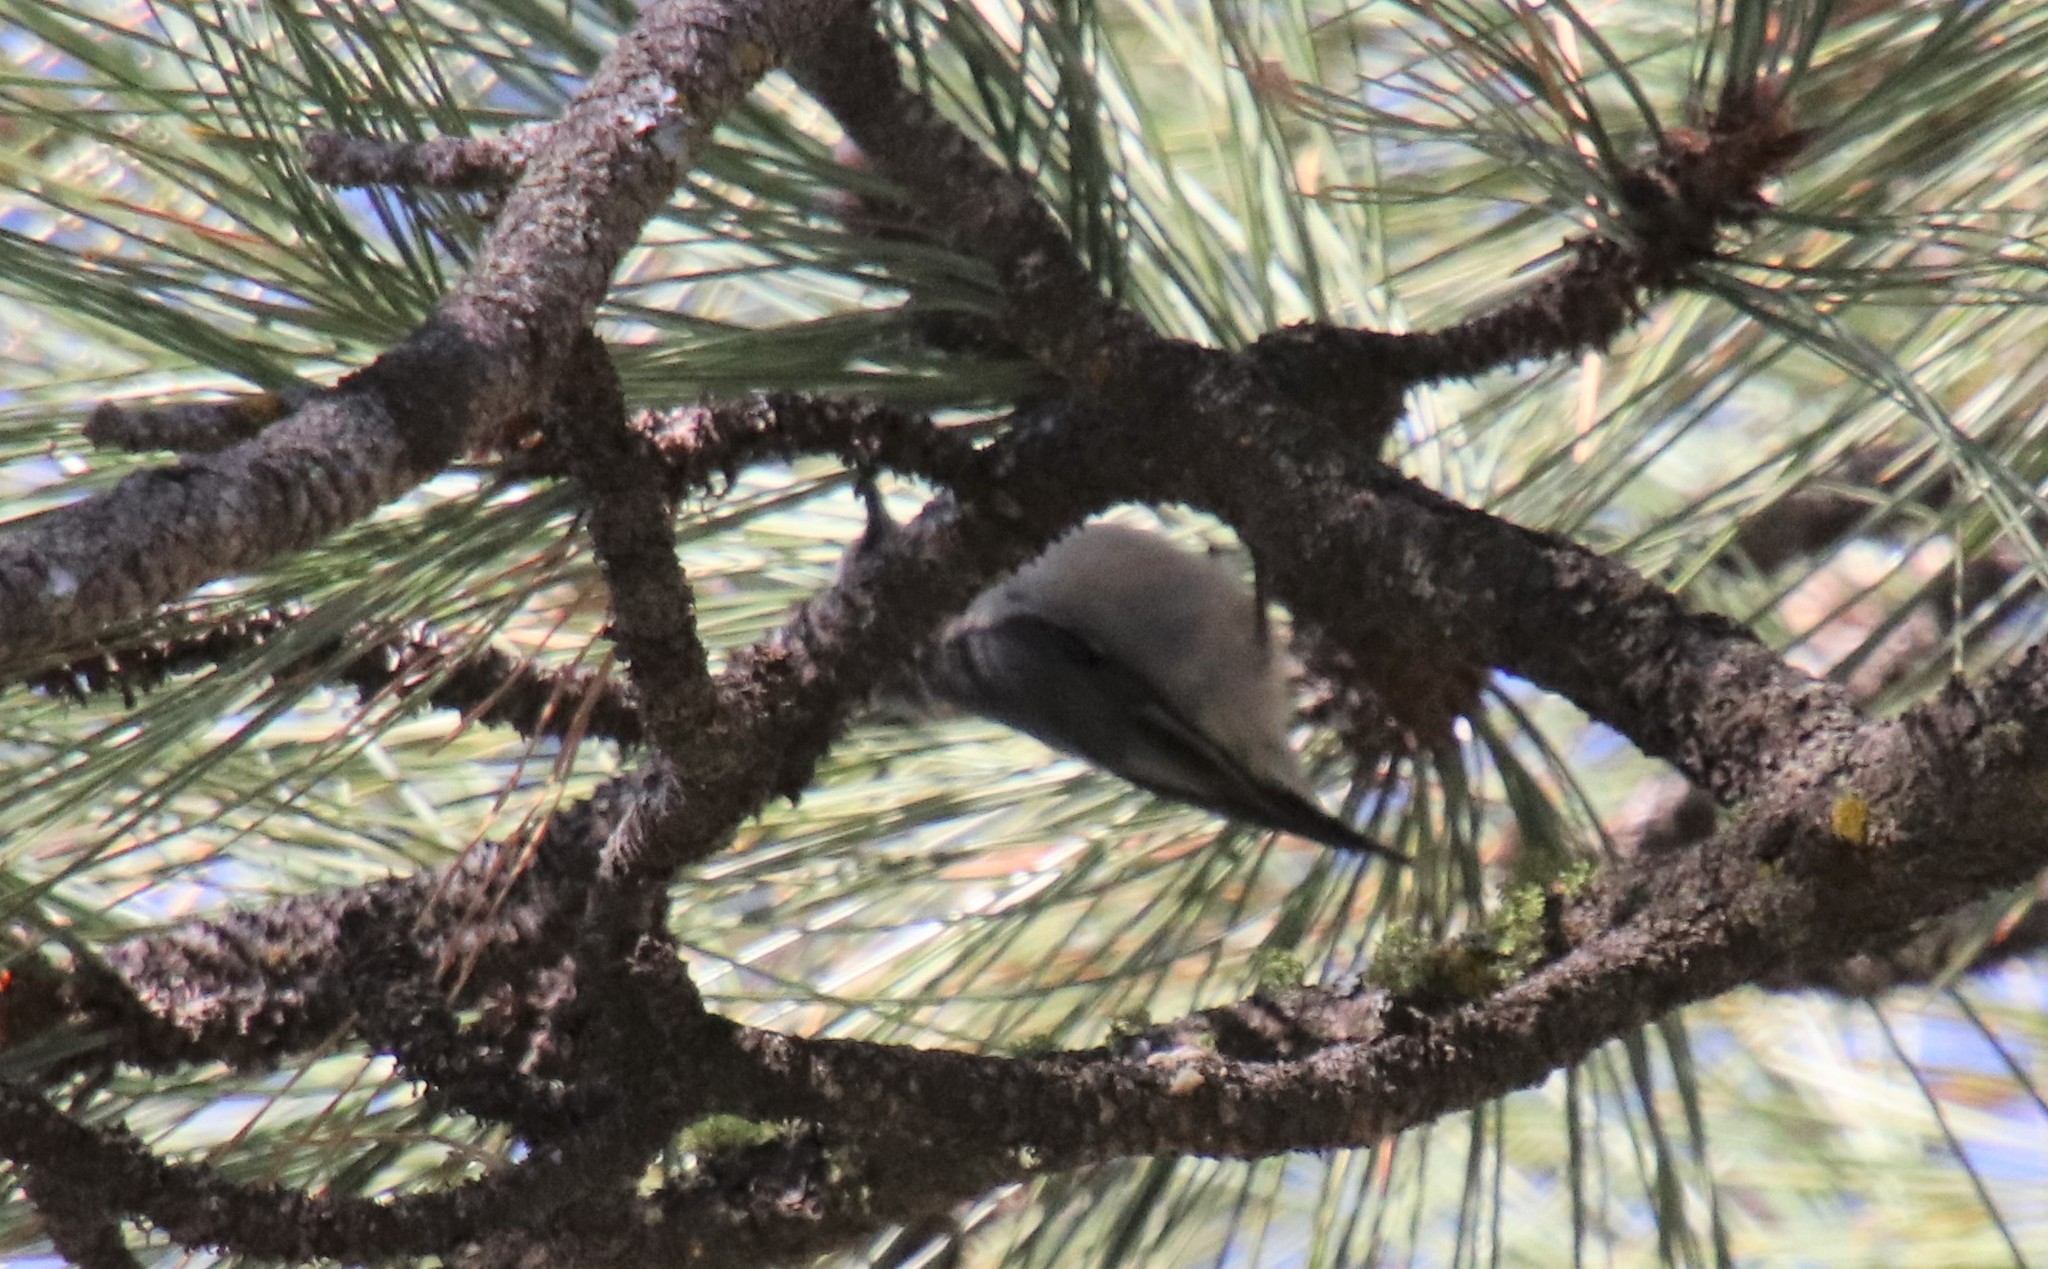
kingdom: Animalia
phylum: Chordata
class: Aves
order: Passeriformes
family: Sittidae
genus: Sitta
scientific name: Sitta pygmaea
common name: Pygmy nuthatch
